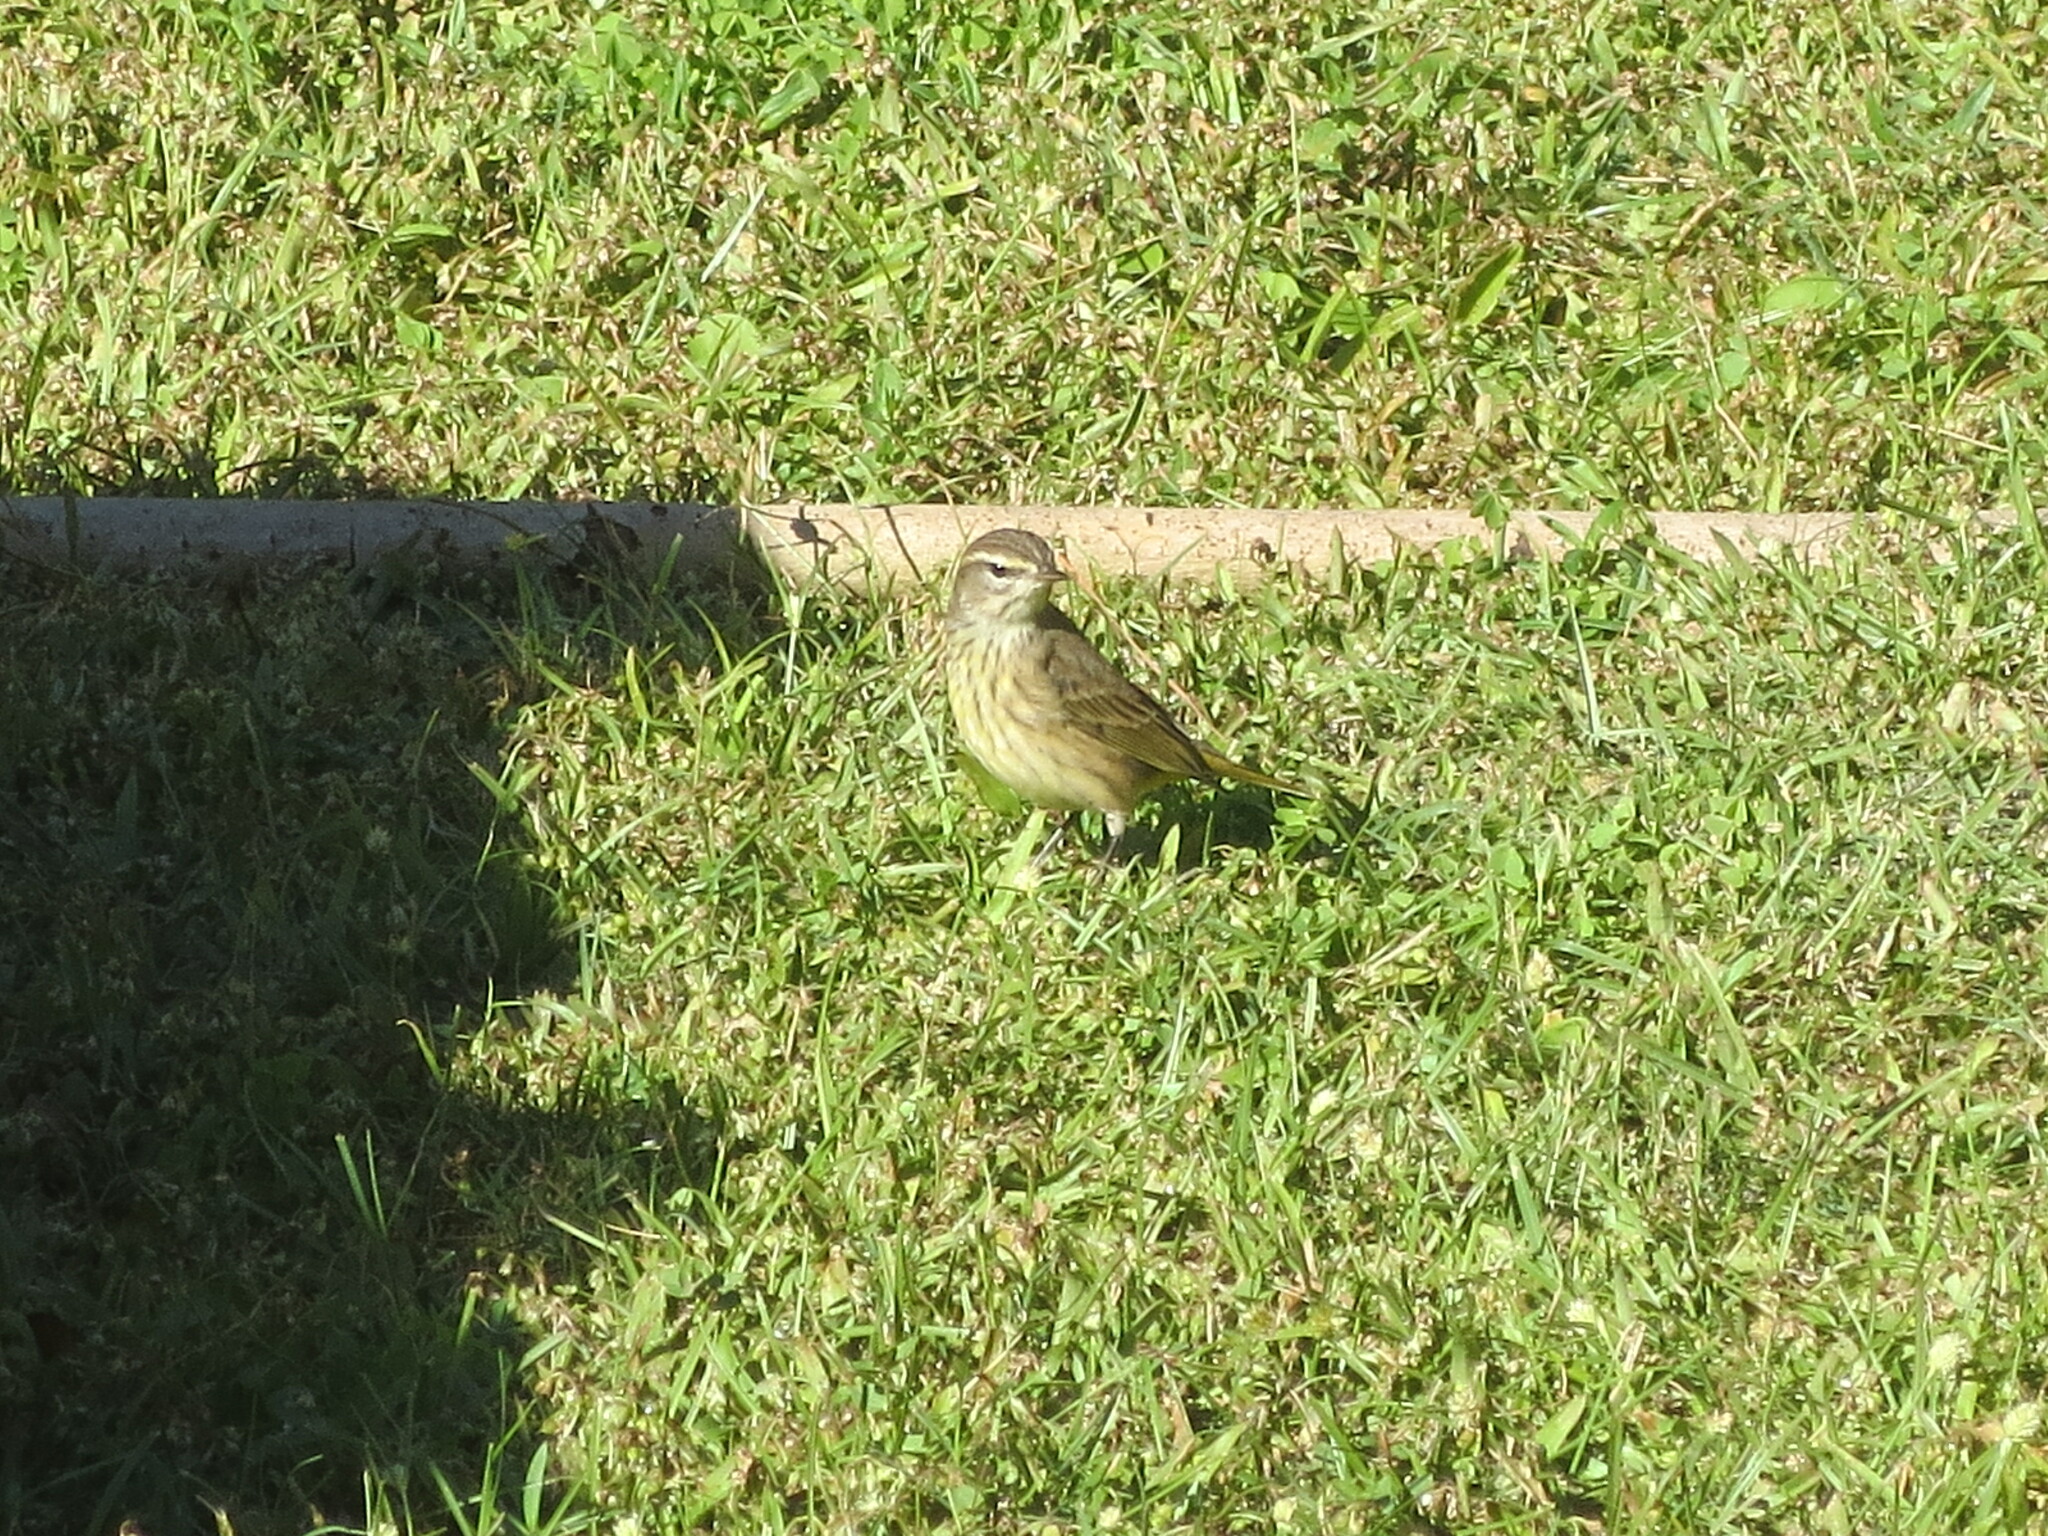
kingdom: Animalia
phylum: Chordata
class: Aves
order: Passeriformes
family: Parulidae
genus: Setophaga
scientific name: Setophaga palmarum
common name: Palm warbler
